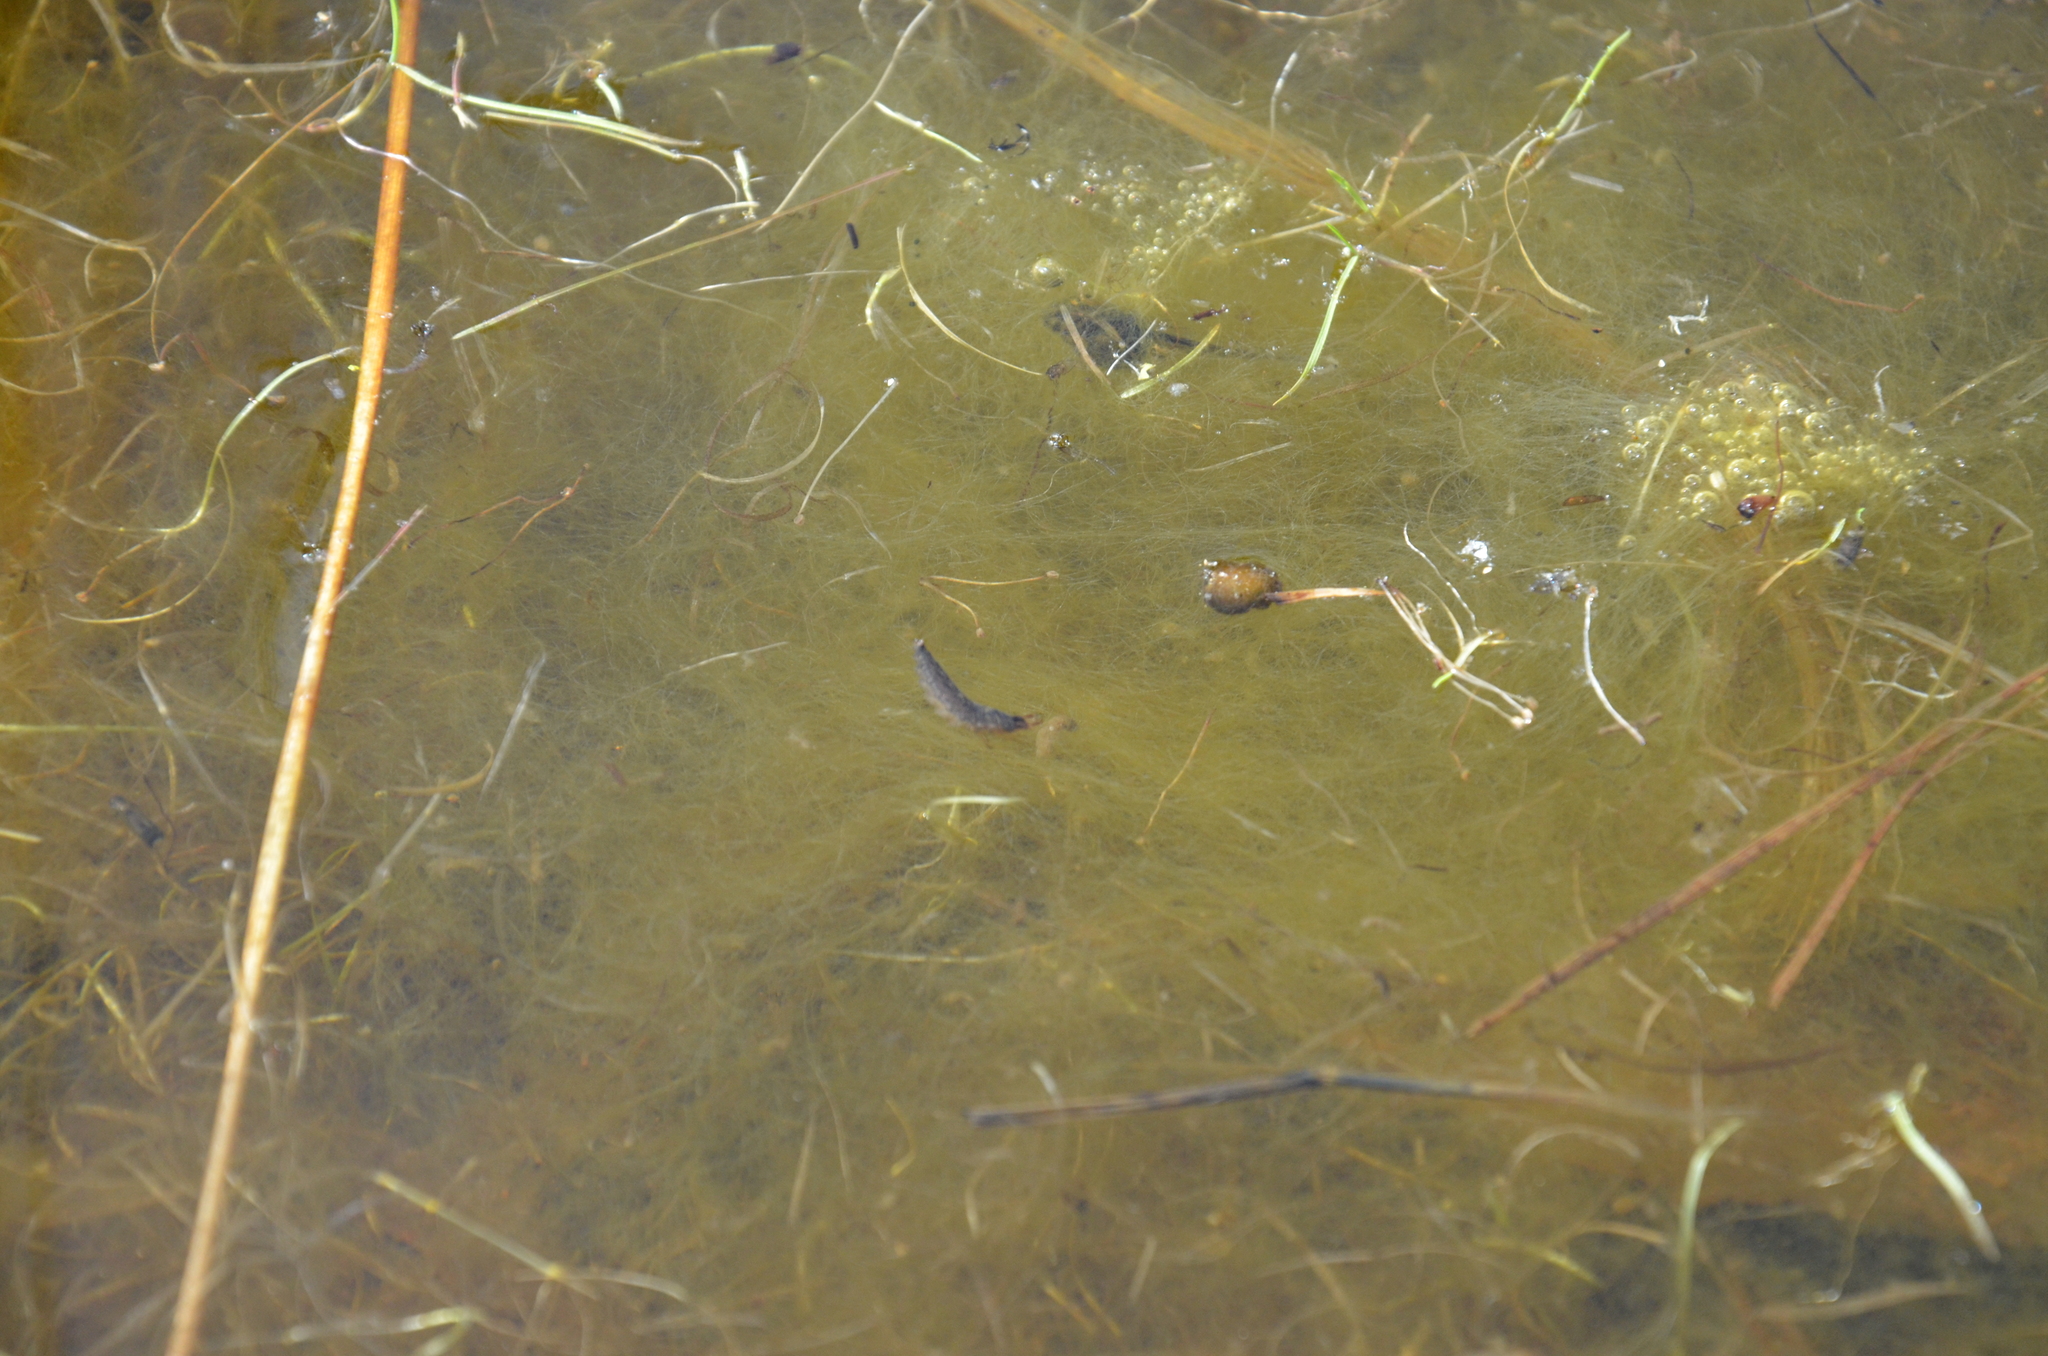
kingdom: Animalia
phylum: Chordata
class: Amphibia
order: Anura
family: Hylidae
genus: Pseudacris
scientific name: Pseudacris regilla
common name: Pacific chorus frog
